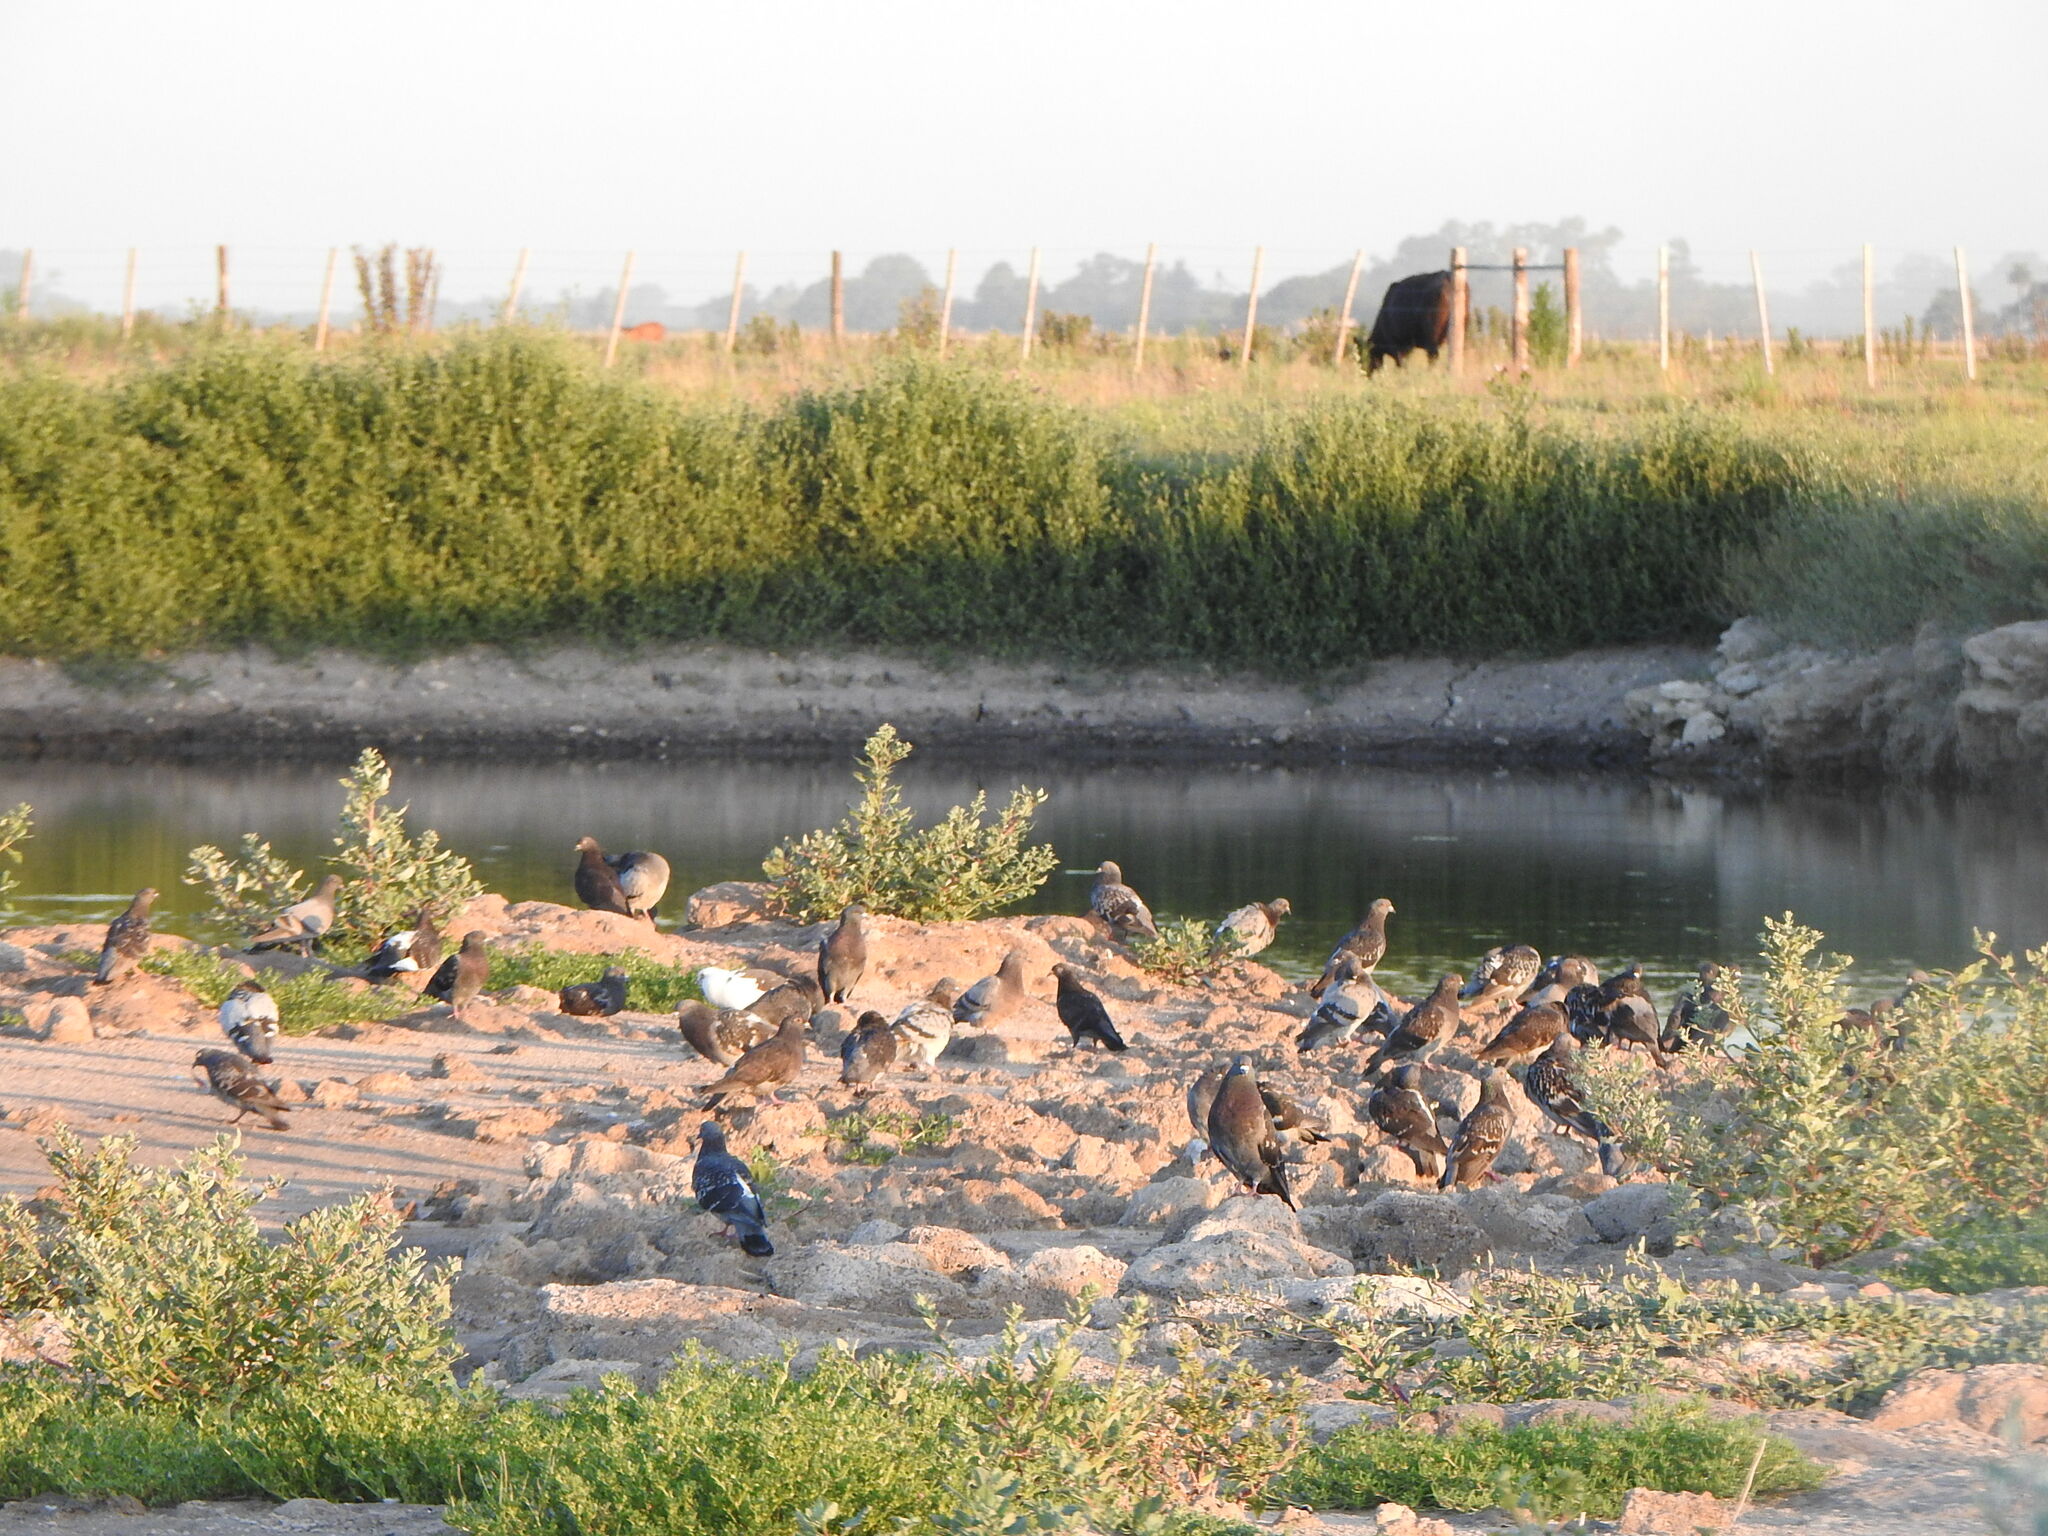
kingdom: Animalia
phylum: Chordata
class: Aves
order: Columbiformes
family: Columbidae
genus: Columba
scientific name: Columba livia
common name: Rock pigeon
